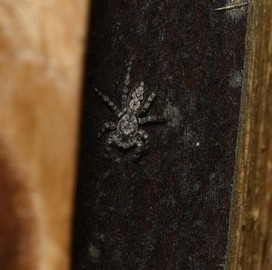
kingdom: Animalia
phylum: Arthropoda
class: Arachnida
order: Araneae
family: Salticidae
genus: Platycryptus
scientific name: Platycryptus undatus
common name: Tan jumping spider
